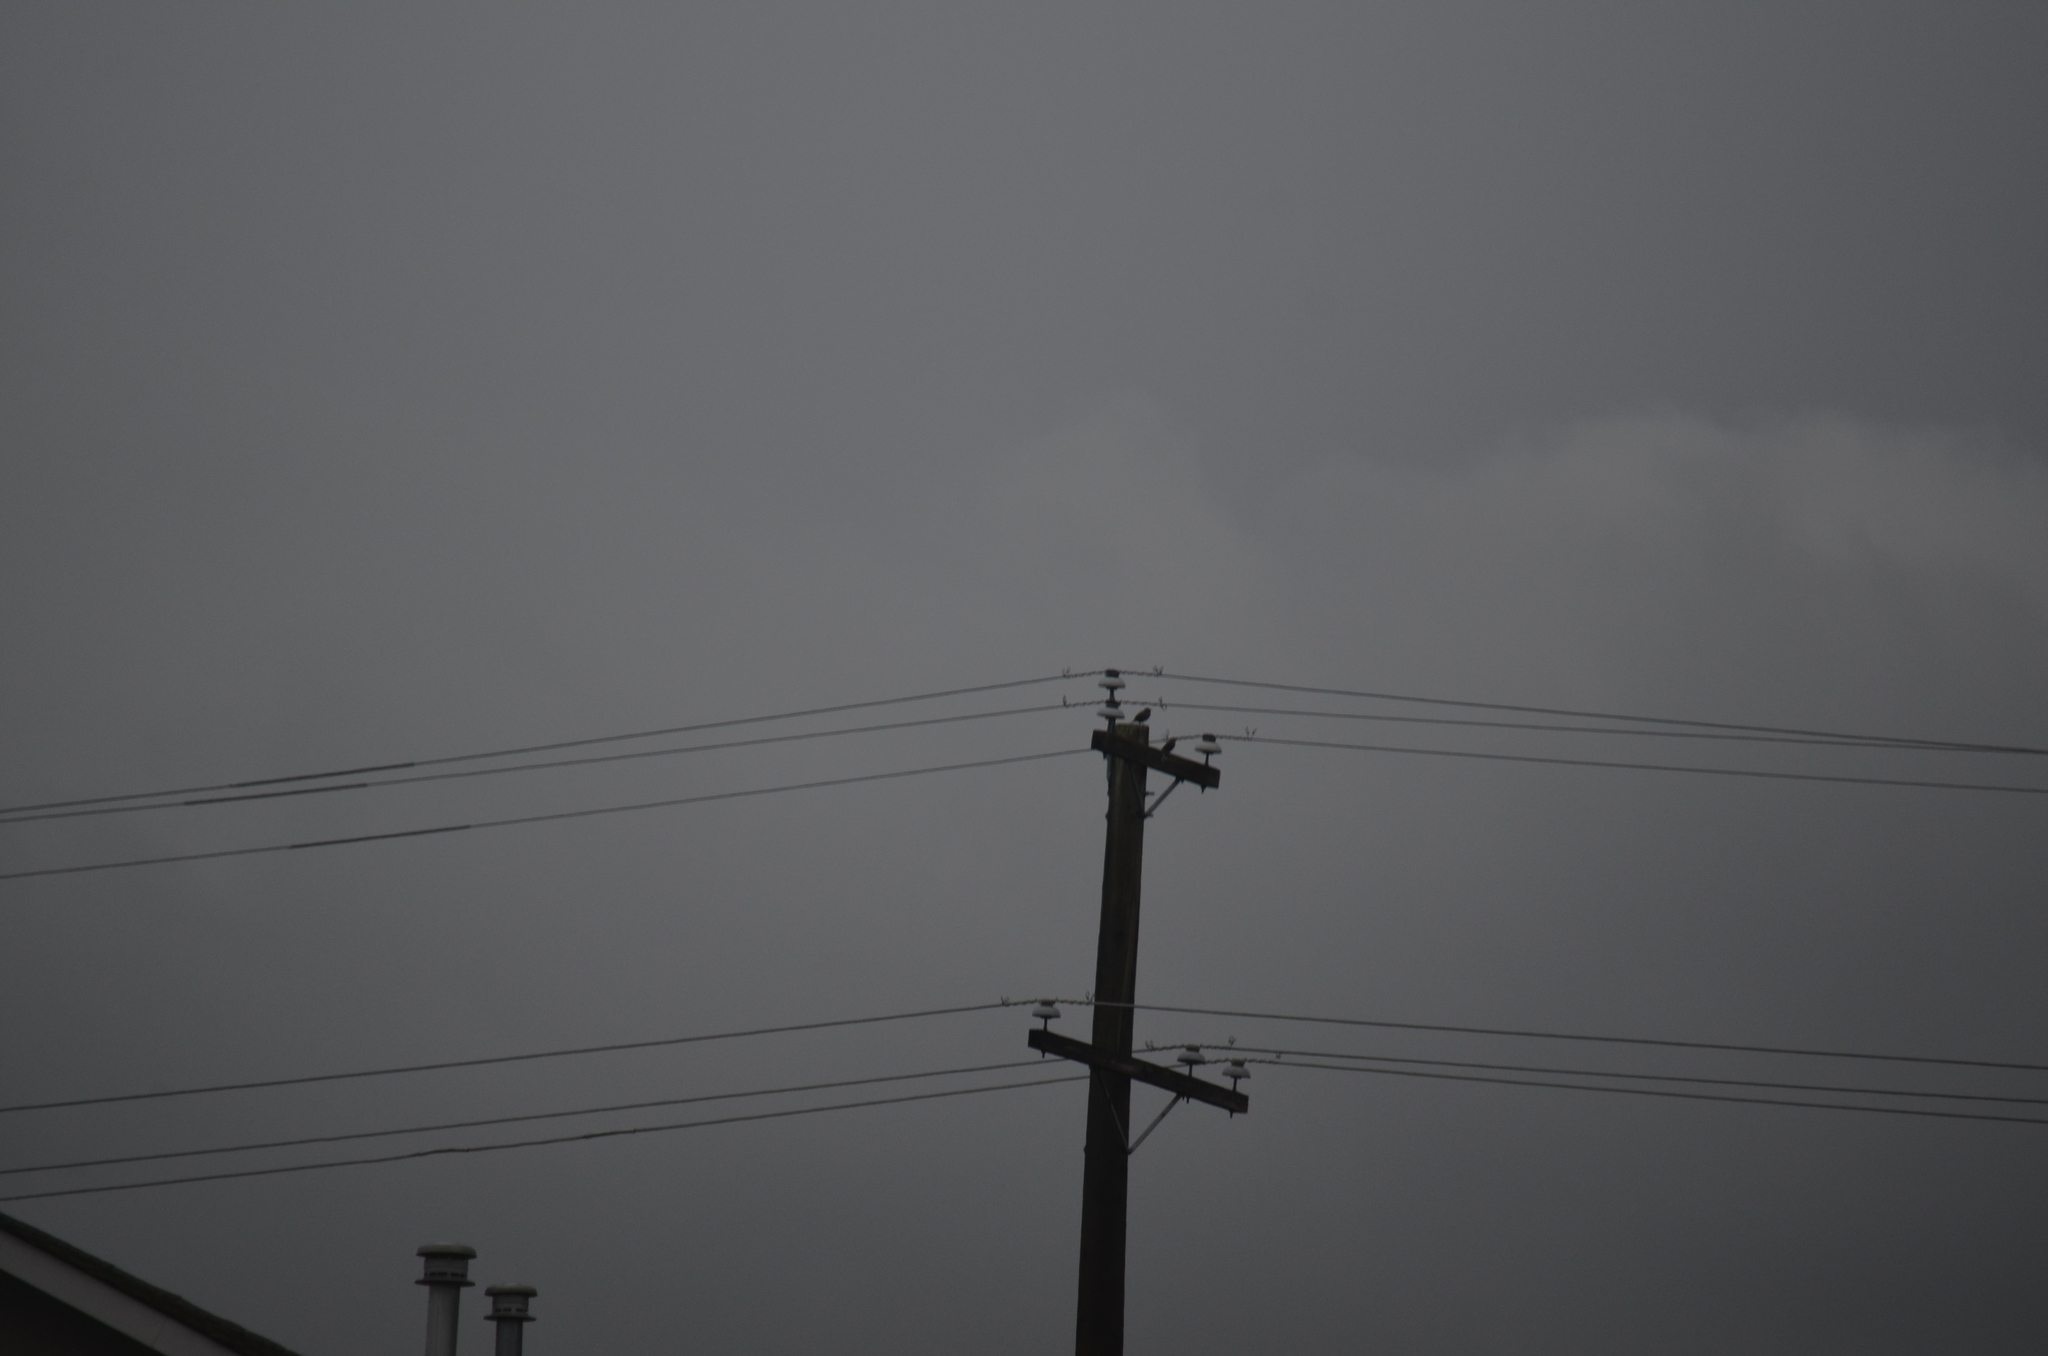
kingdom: Animalia
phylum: Chordata
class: Aves
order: Passeriformes
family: Sturnidae
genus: Sturnus
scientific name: Sturnus vulgaris
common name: Common starling
